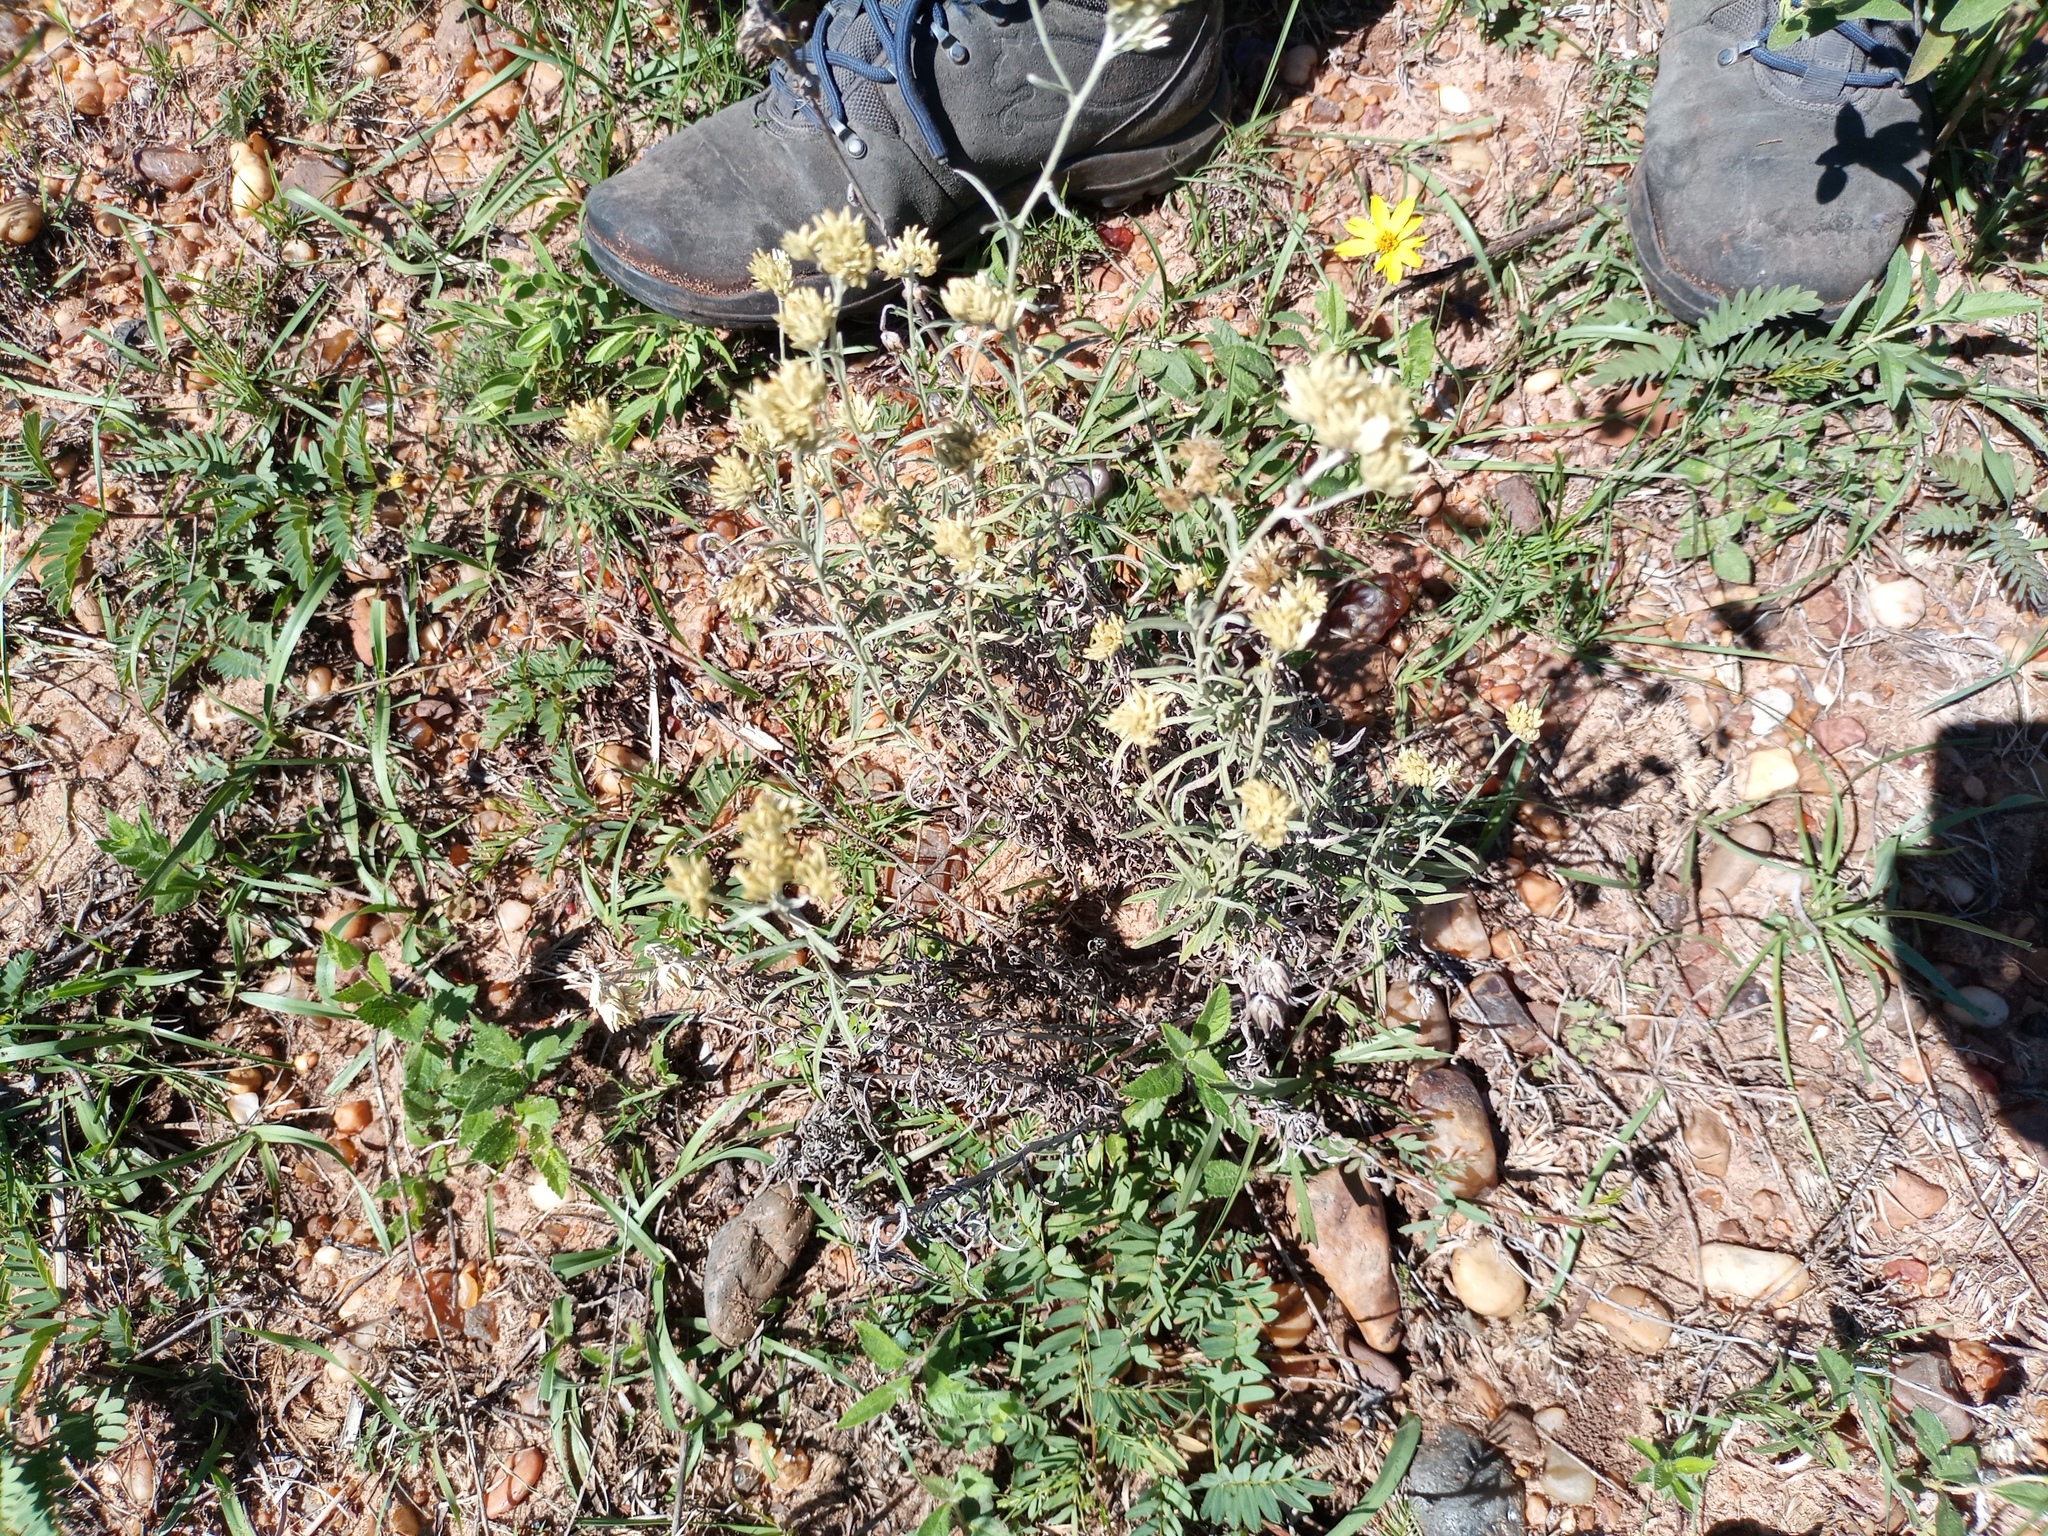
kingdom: Plantae
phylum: Tracheophyta
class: Magnoliopsida
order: Asterales
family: Asteraceae
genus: Achyrocline
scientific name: Achyrocline satureioides
